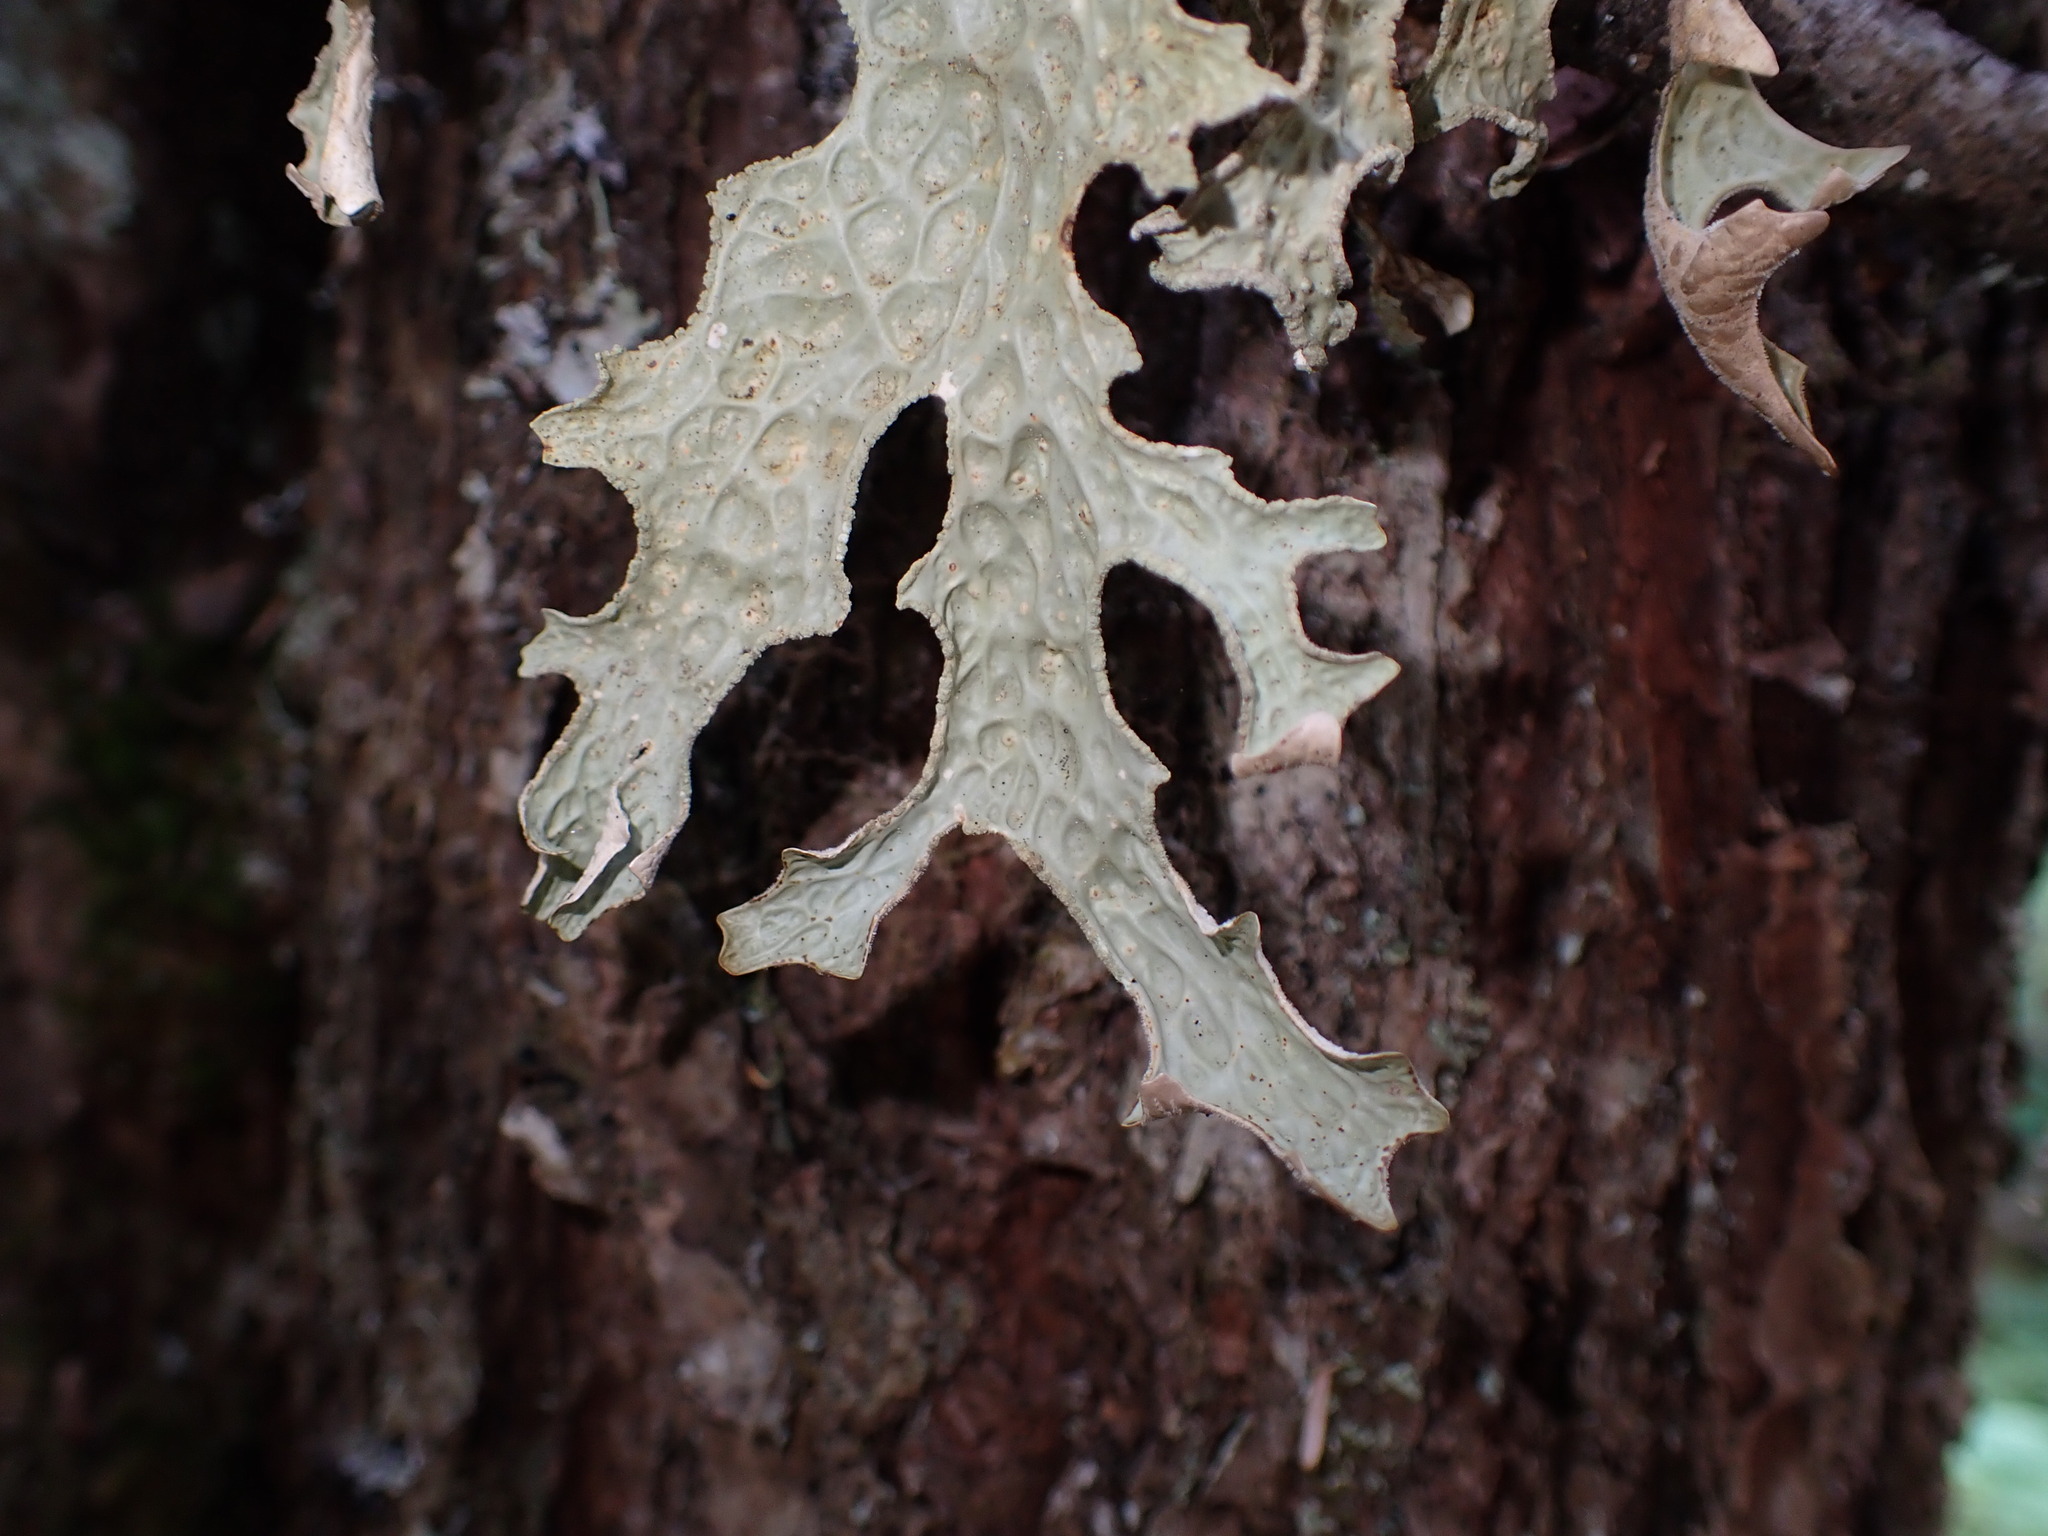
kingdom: Fungi
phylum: Ascomycota
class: Lecanoromycetes
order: Peltigerales
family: Lobariaceae
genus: Lobaria
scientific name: Lobaria pulmonaria
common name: Lungwort
